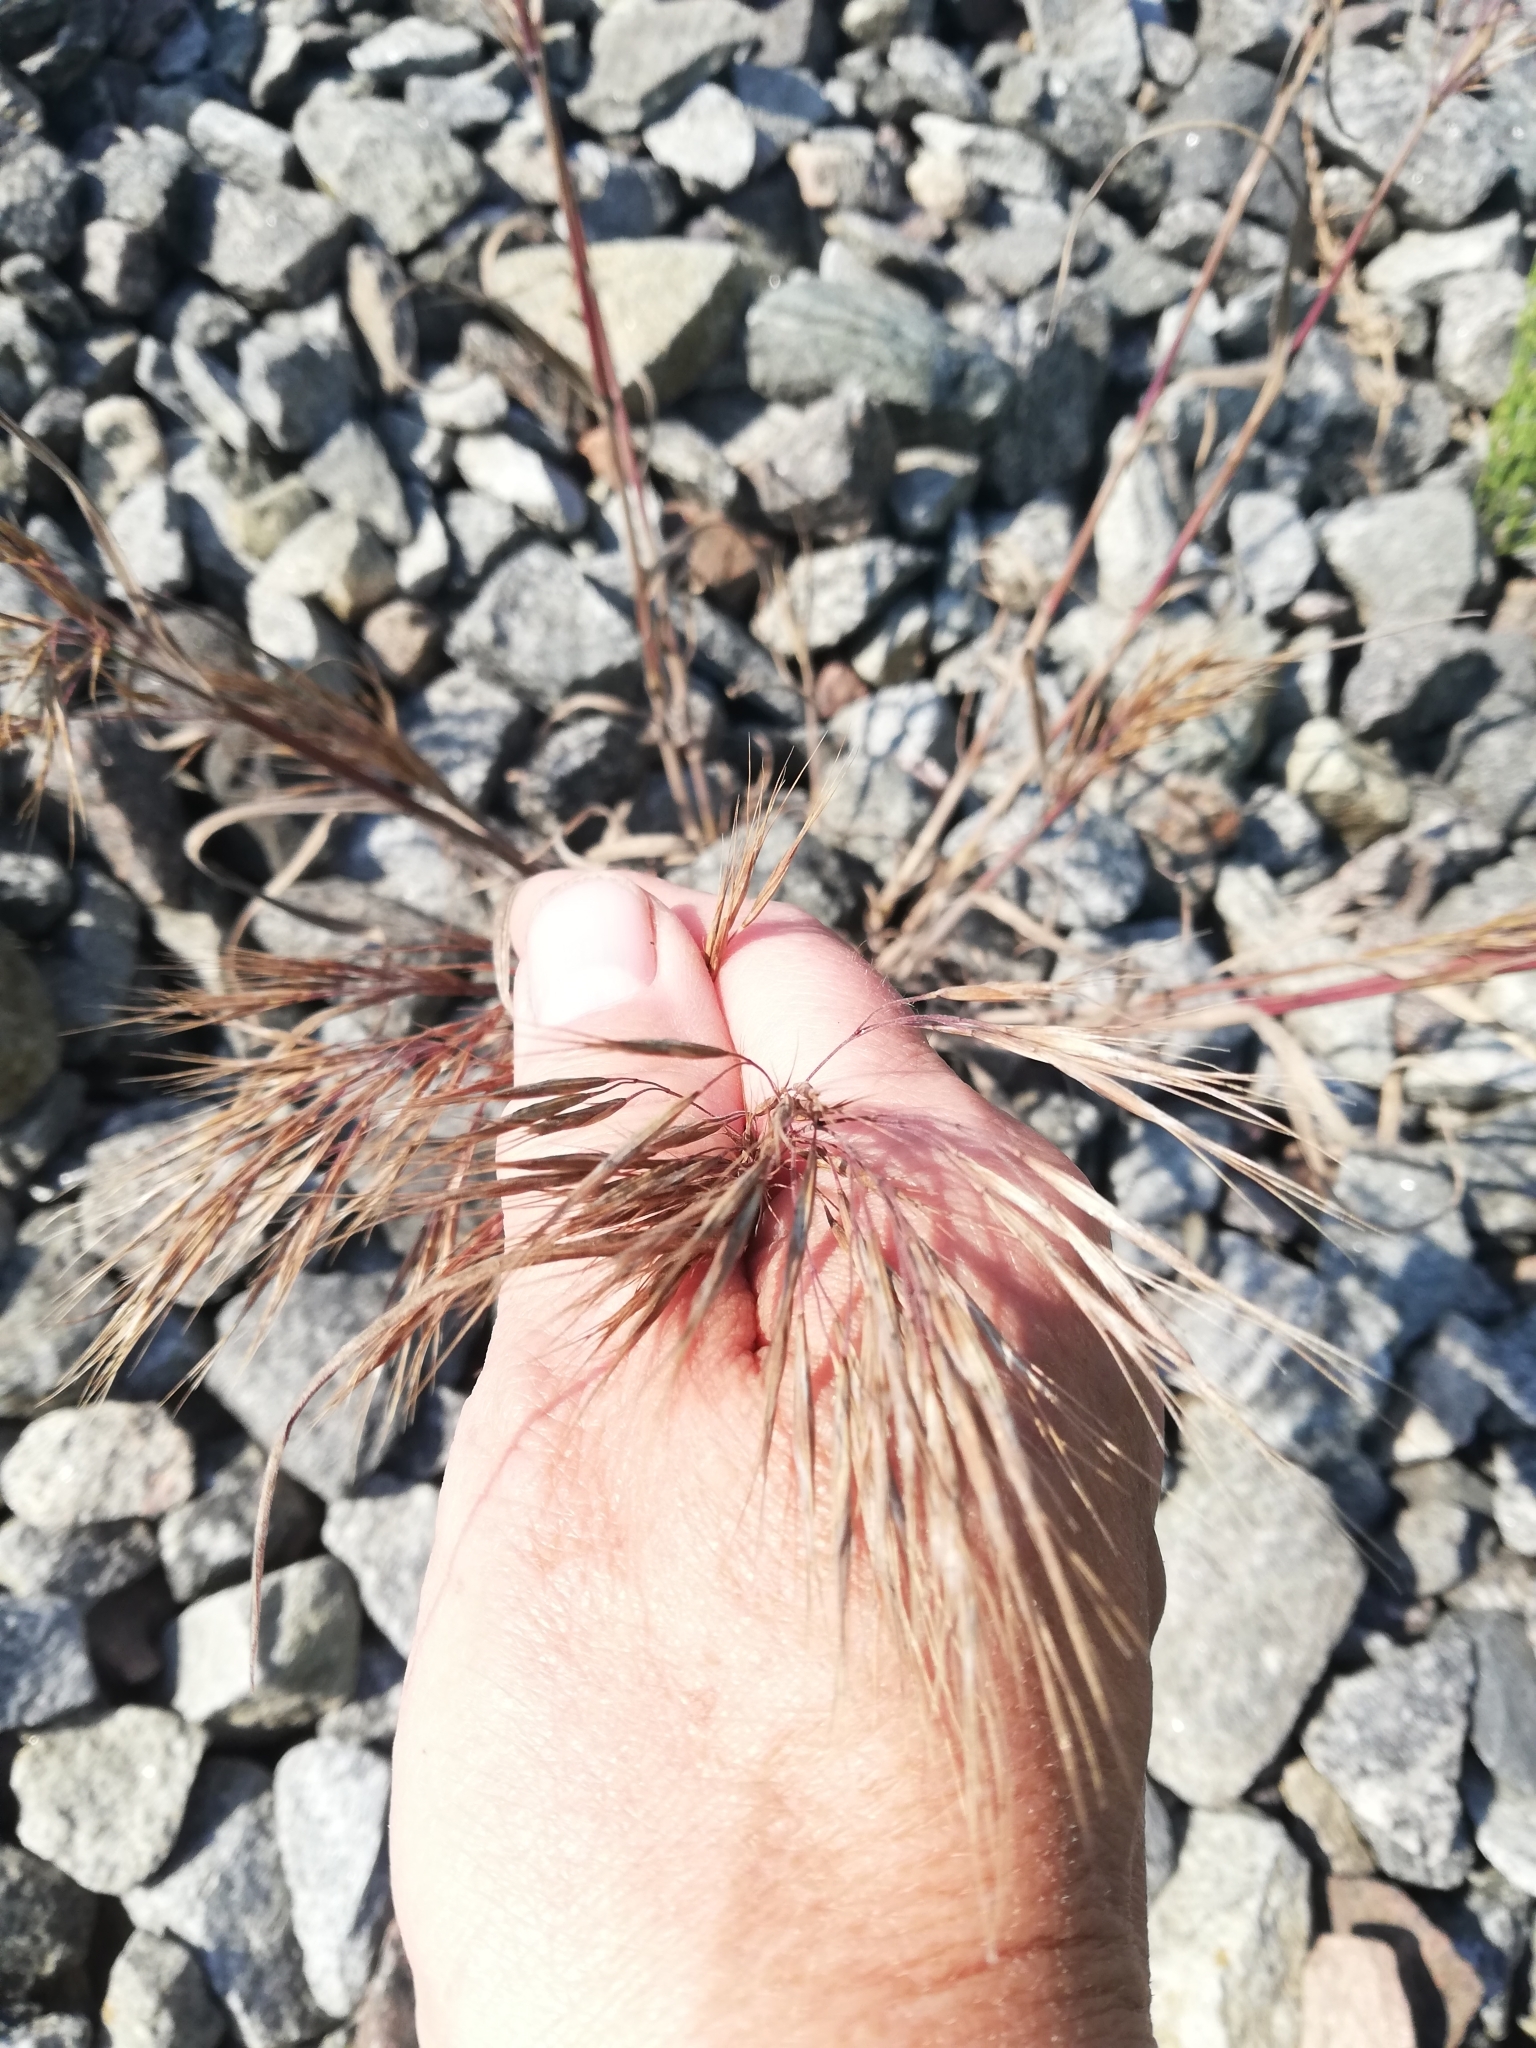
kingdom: Plantae
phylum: Tracheophyta
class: Liliopsida
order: Poales
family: Poaceae
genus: Bromus
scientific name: Bromus tectorum
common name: Cheatgrass
